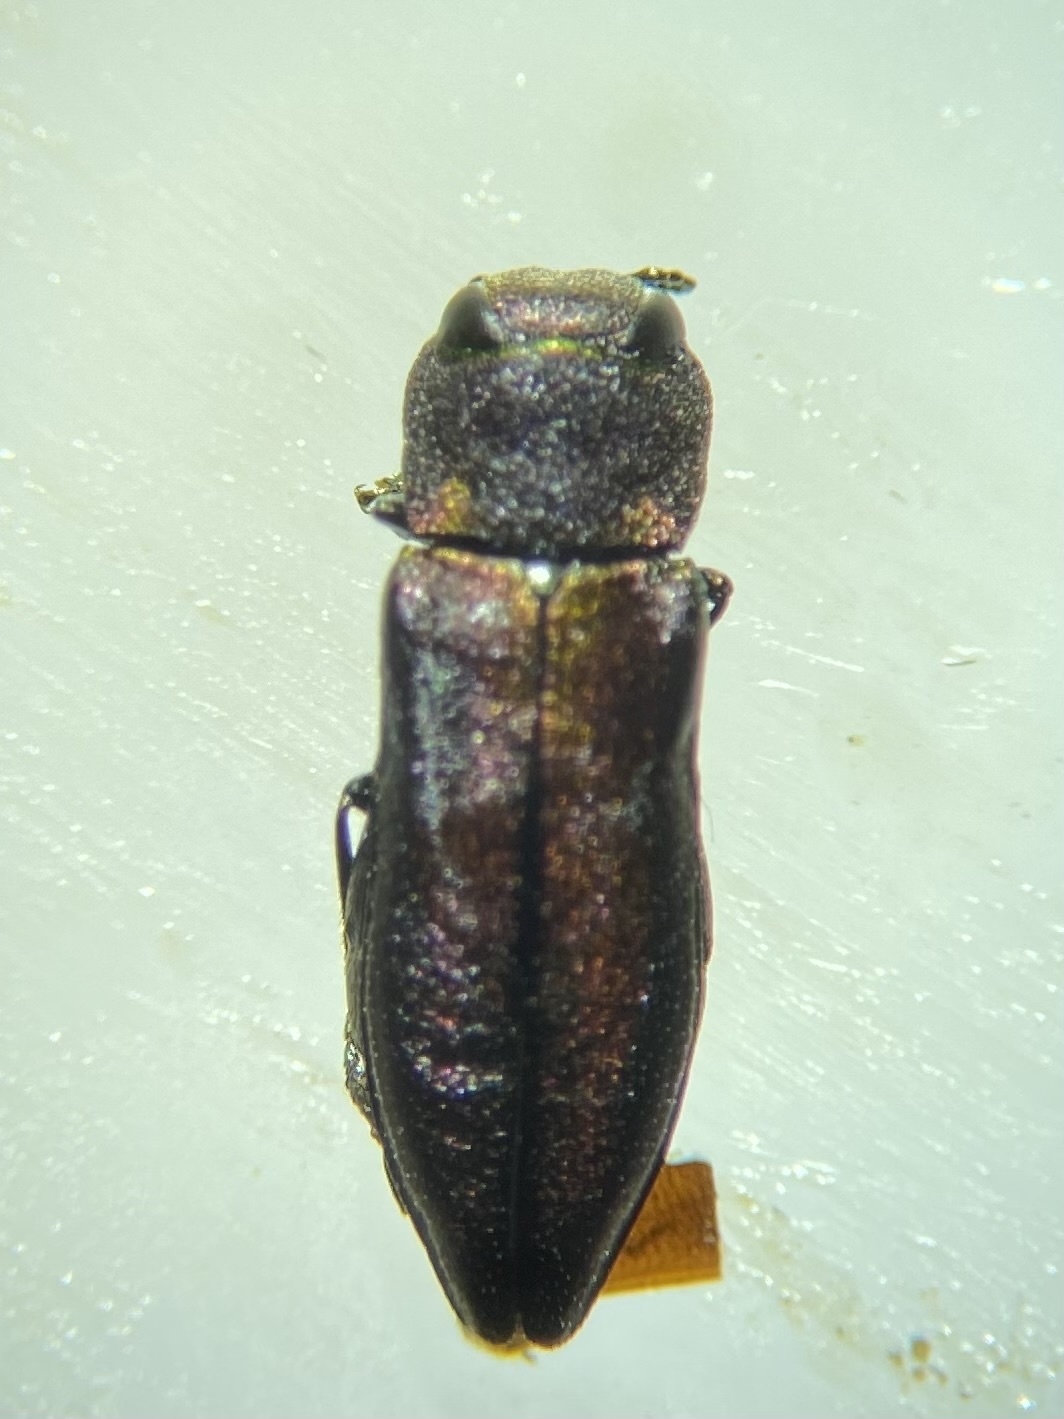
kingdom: Animalia
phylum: Arthropoda
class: Insecta
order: Coleoptera
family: Buprestidae
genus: Anthaxia
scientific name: Anthaxia dichroa
